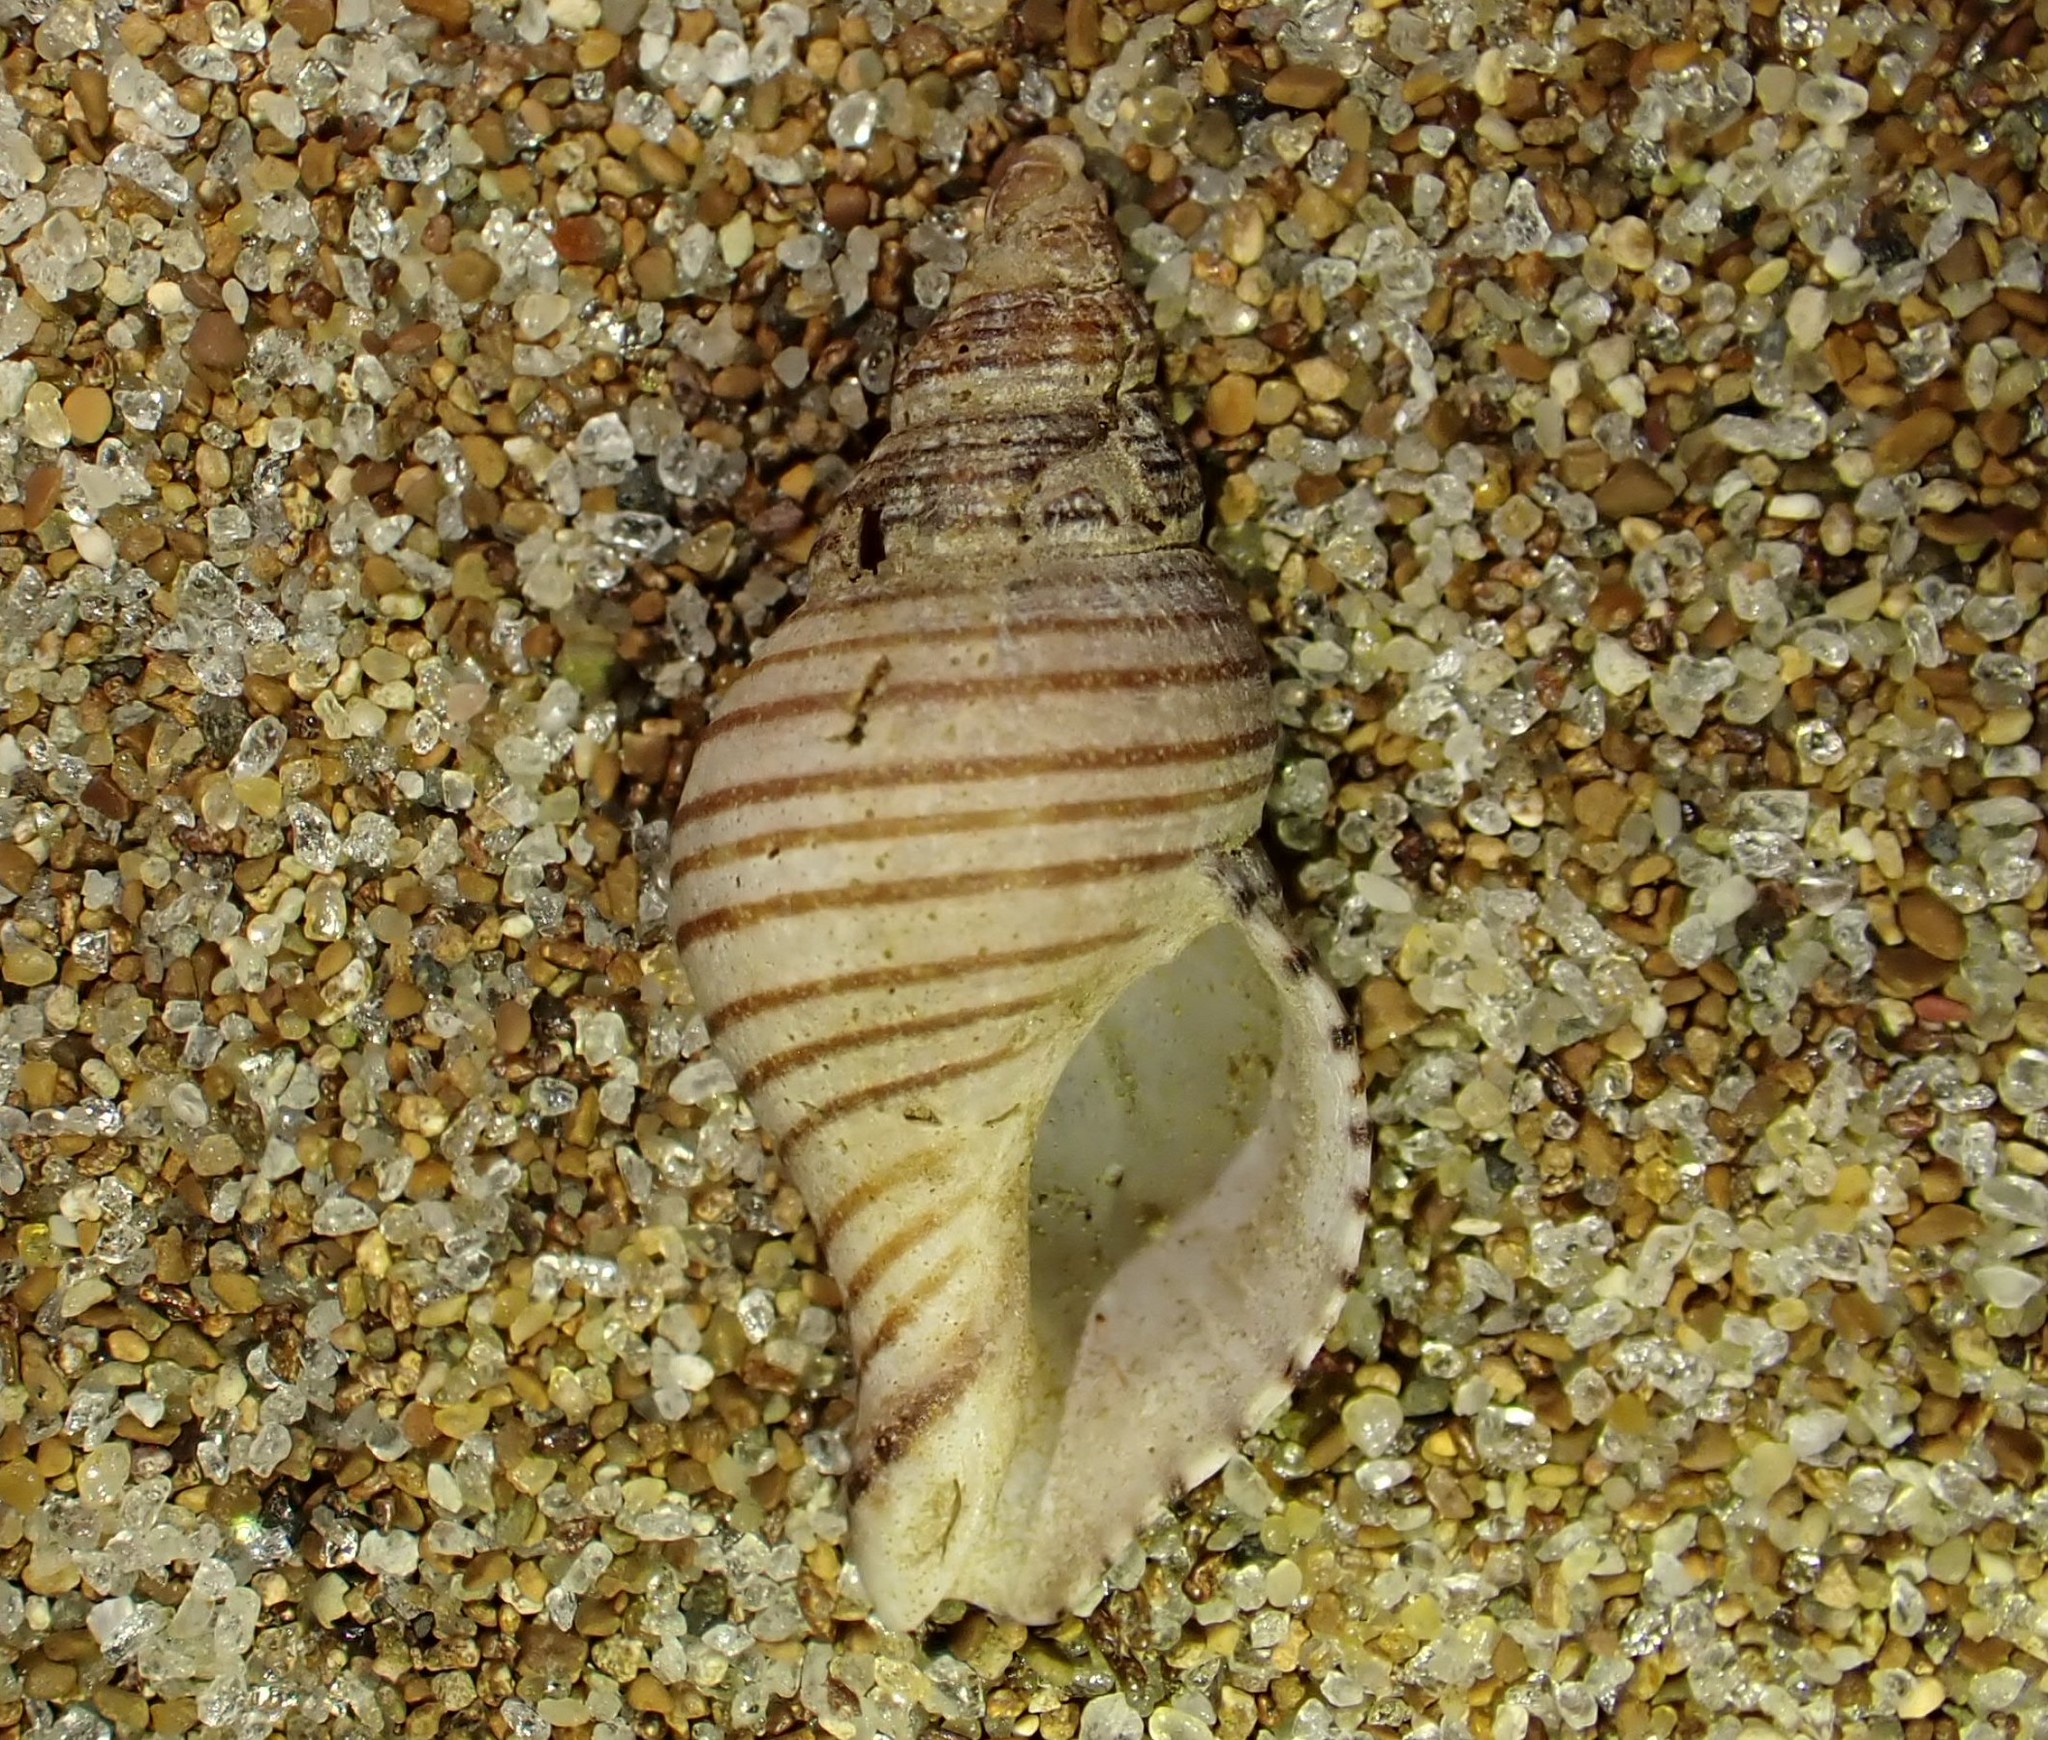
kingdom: Animalia
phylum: Mollusca
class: Gastropoda
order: Neogastropoda
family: Tudiclidae
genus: Buccinulum
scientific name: Buccinulum linea
